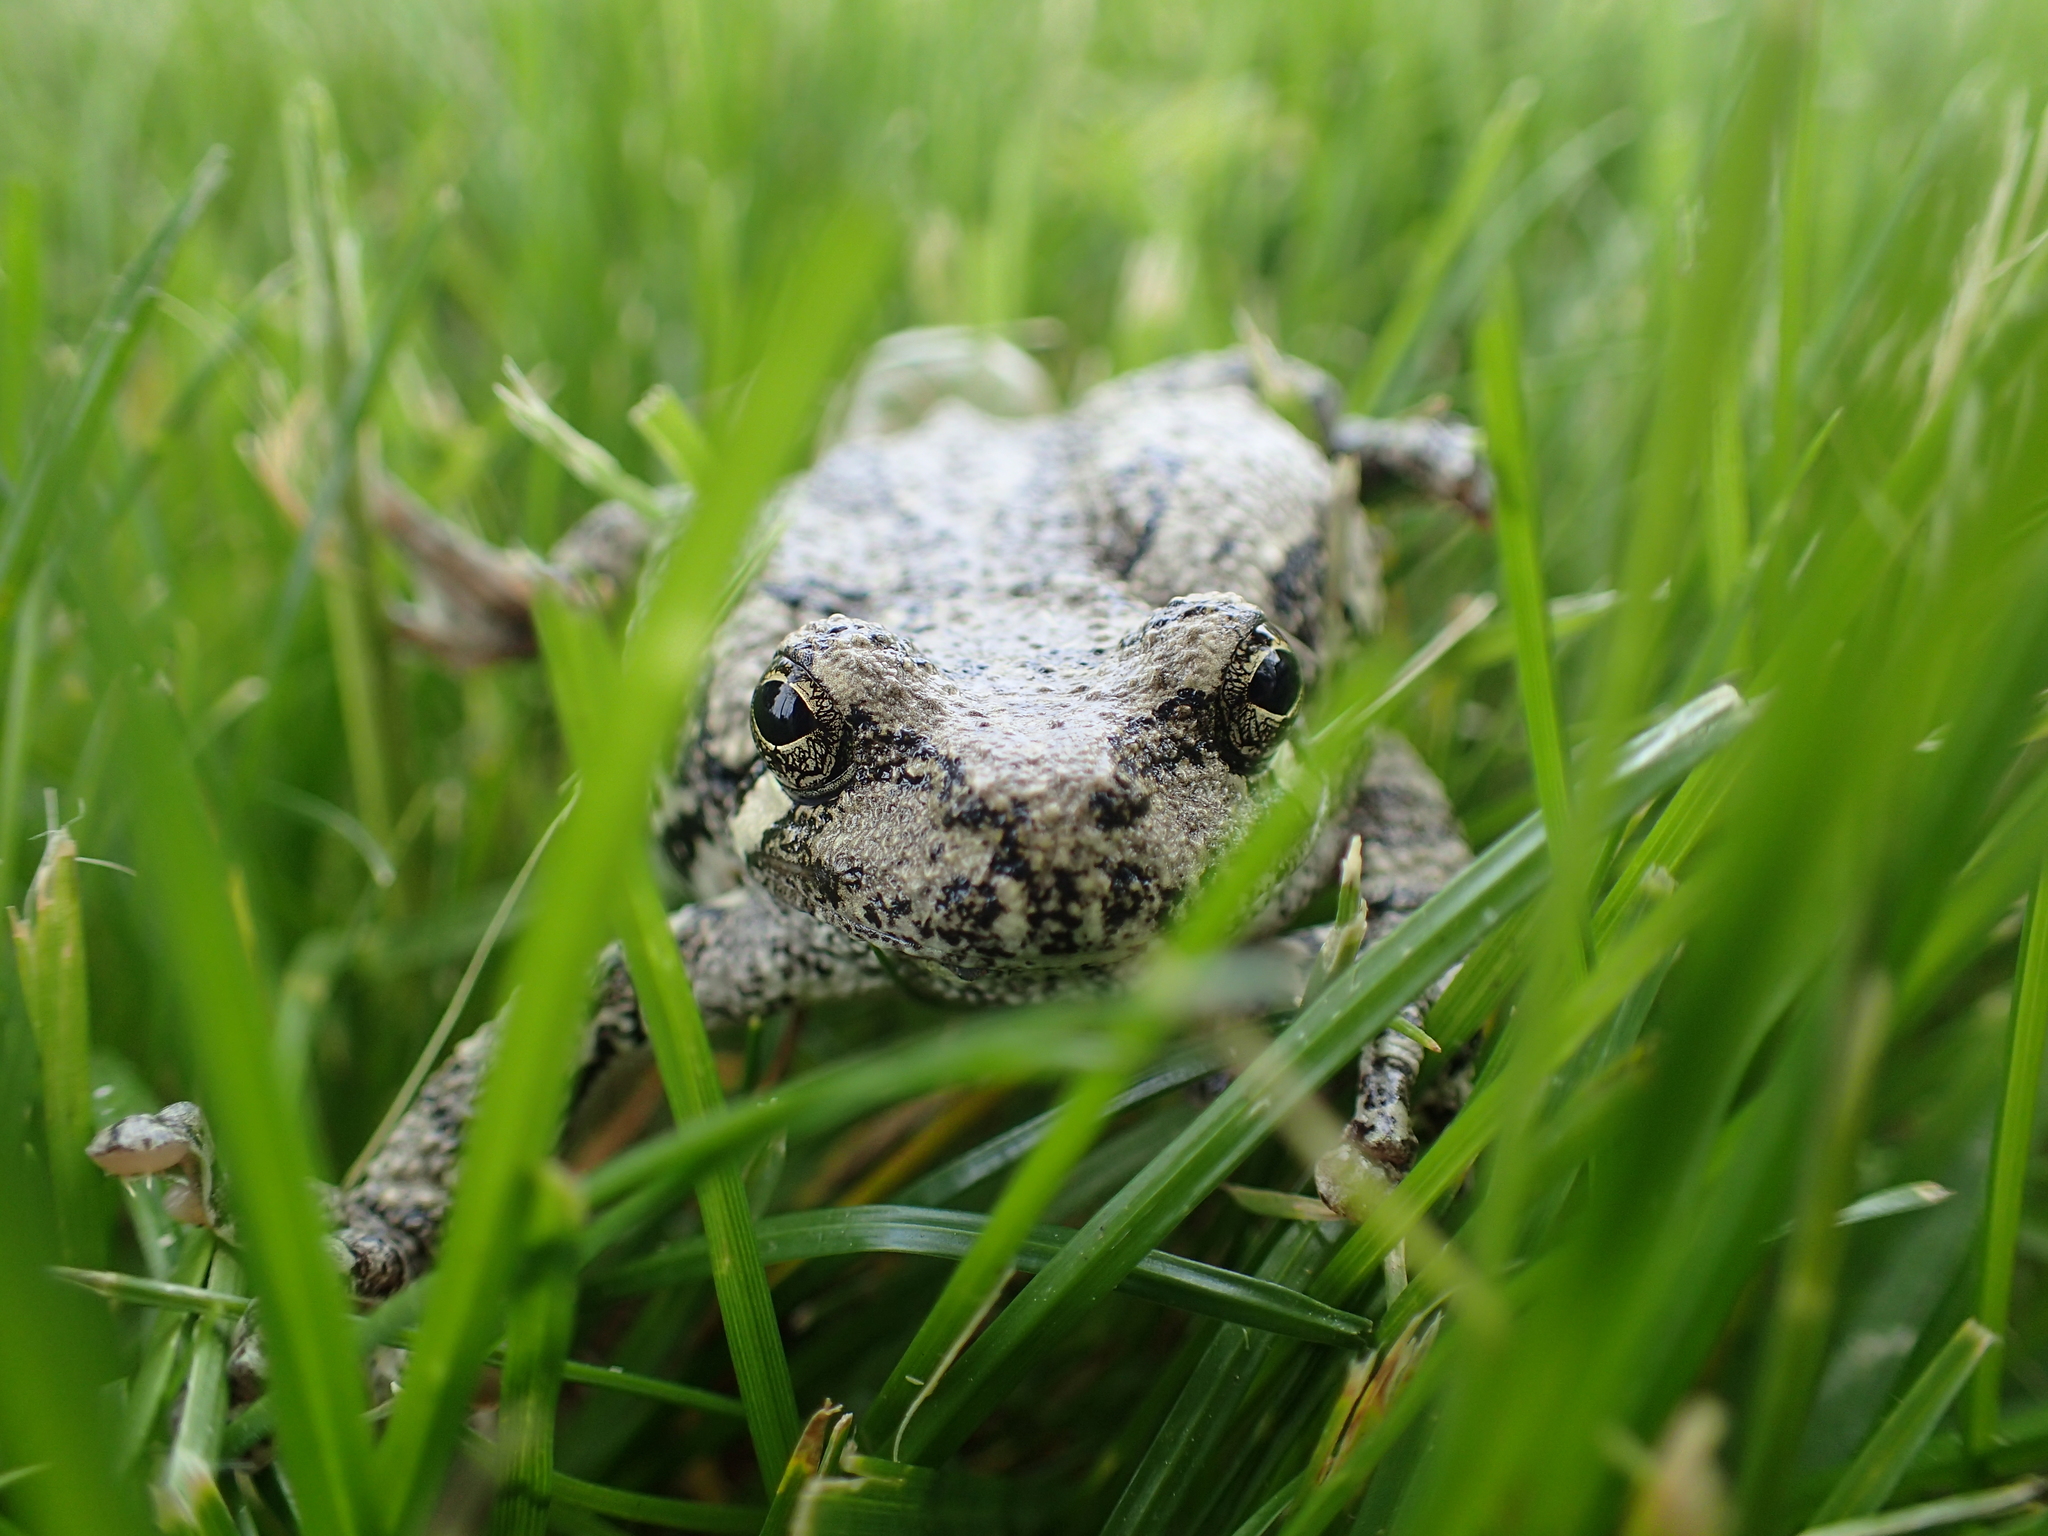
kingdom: Animalia
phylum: Chordata
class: Amphibia
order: Anura
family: Hylidae
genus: Hyla
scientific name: Hyla
